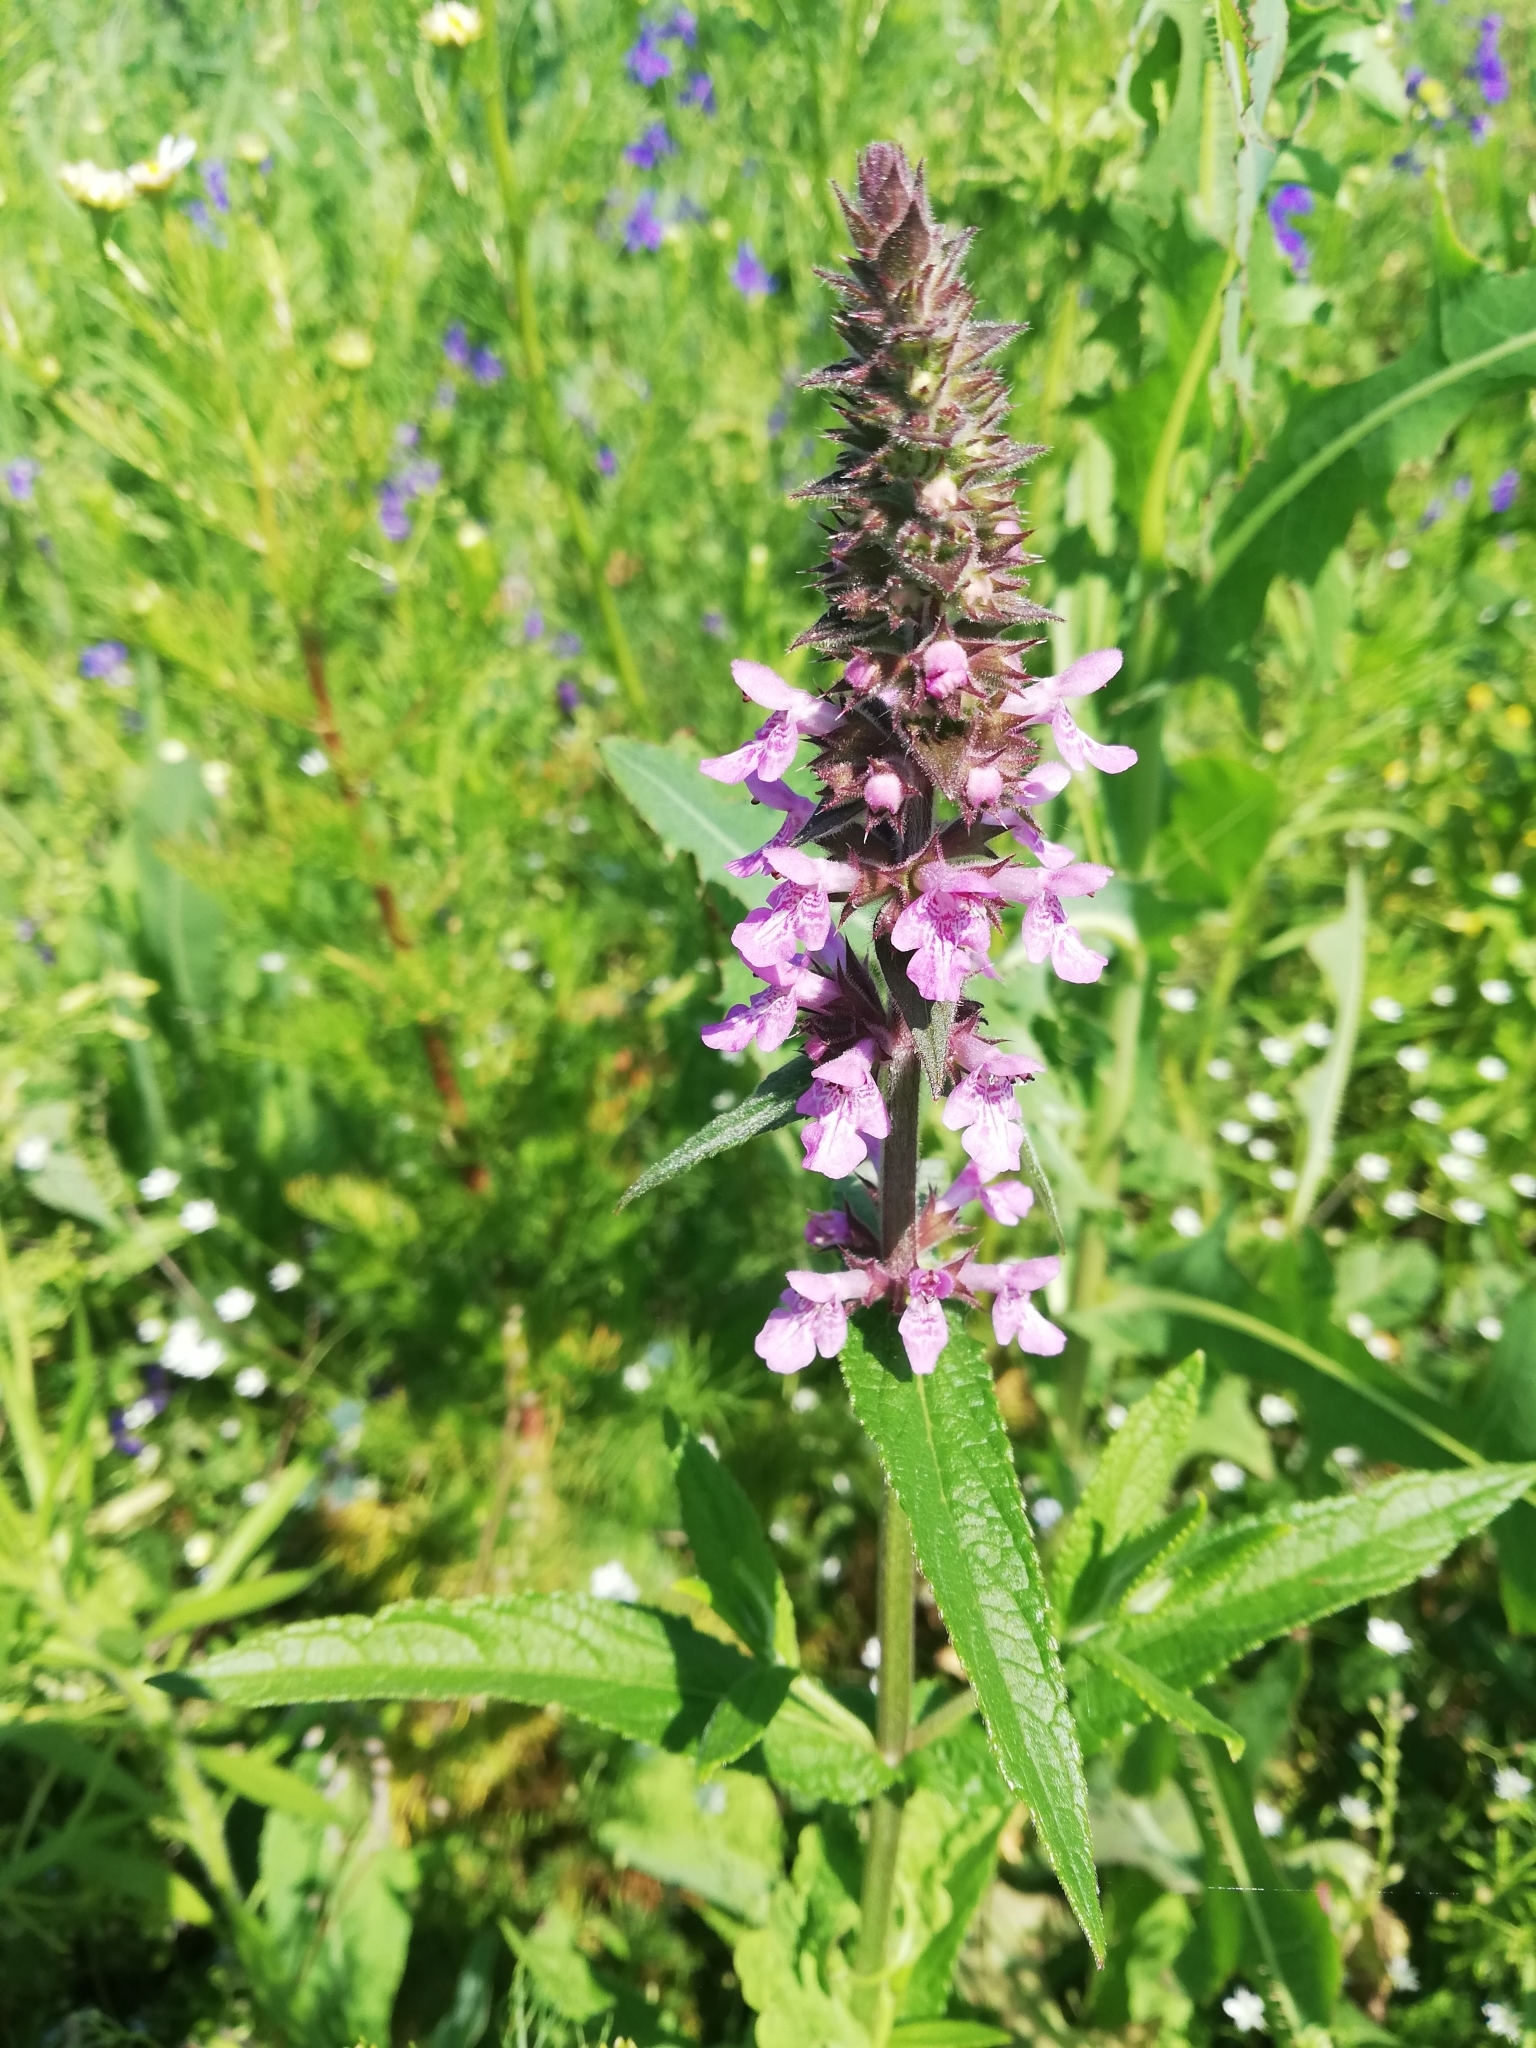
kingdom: Plantae
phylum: Tracheophyta
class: Magnoliopsida
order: Lamiales
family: Lamiaceae
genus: Stachys
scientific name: Stachys palustris
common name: Marsh woundwort
